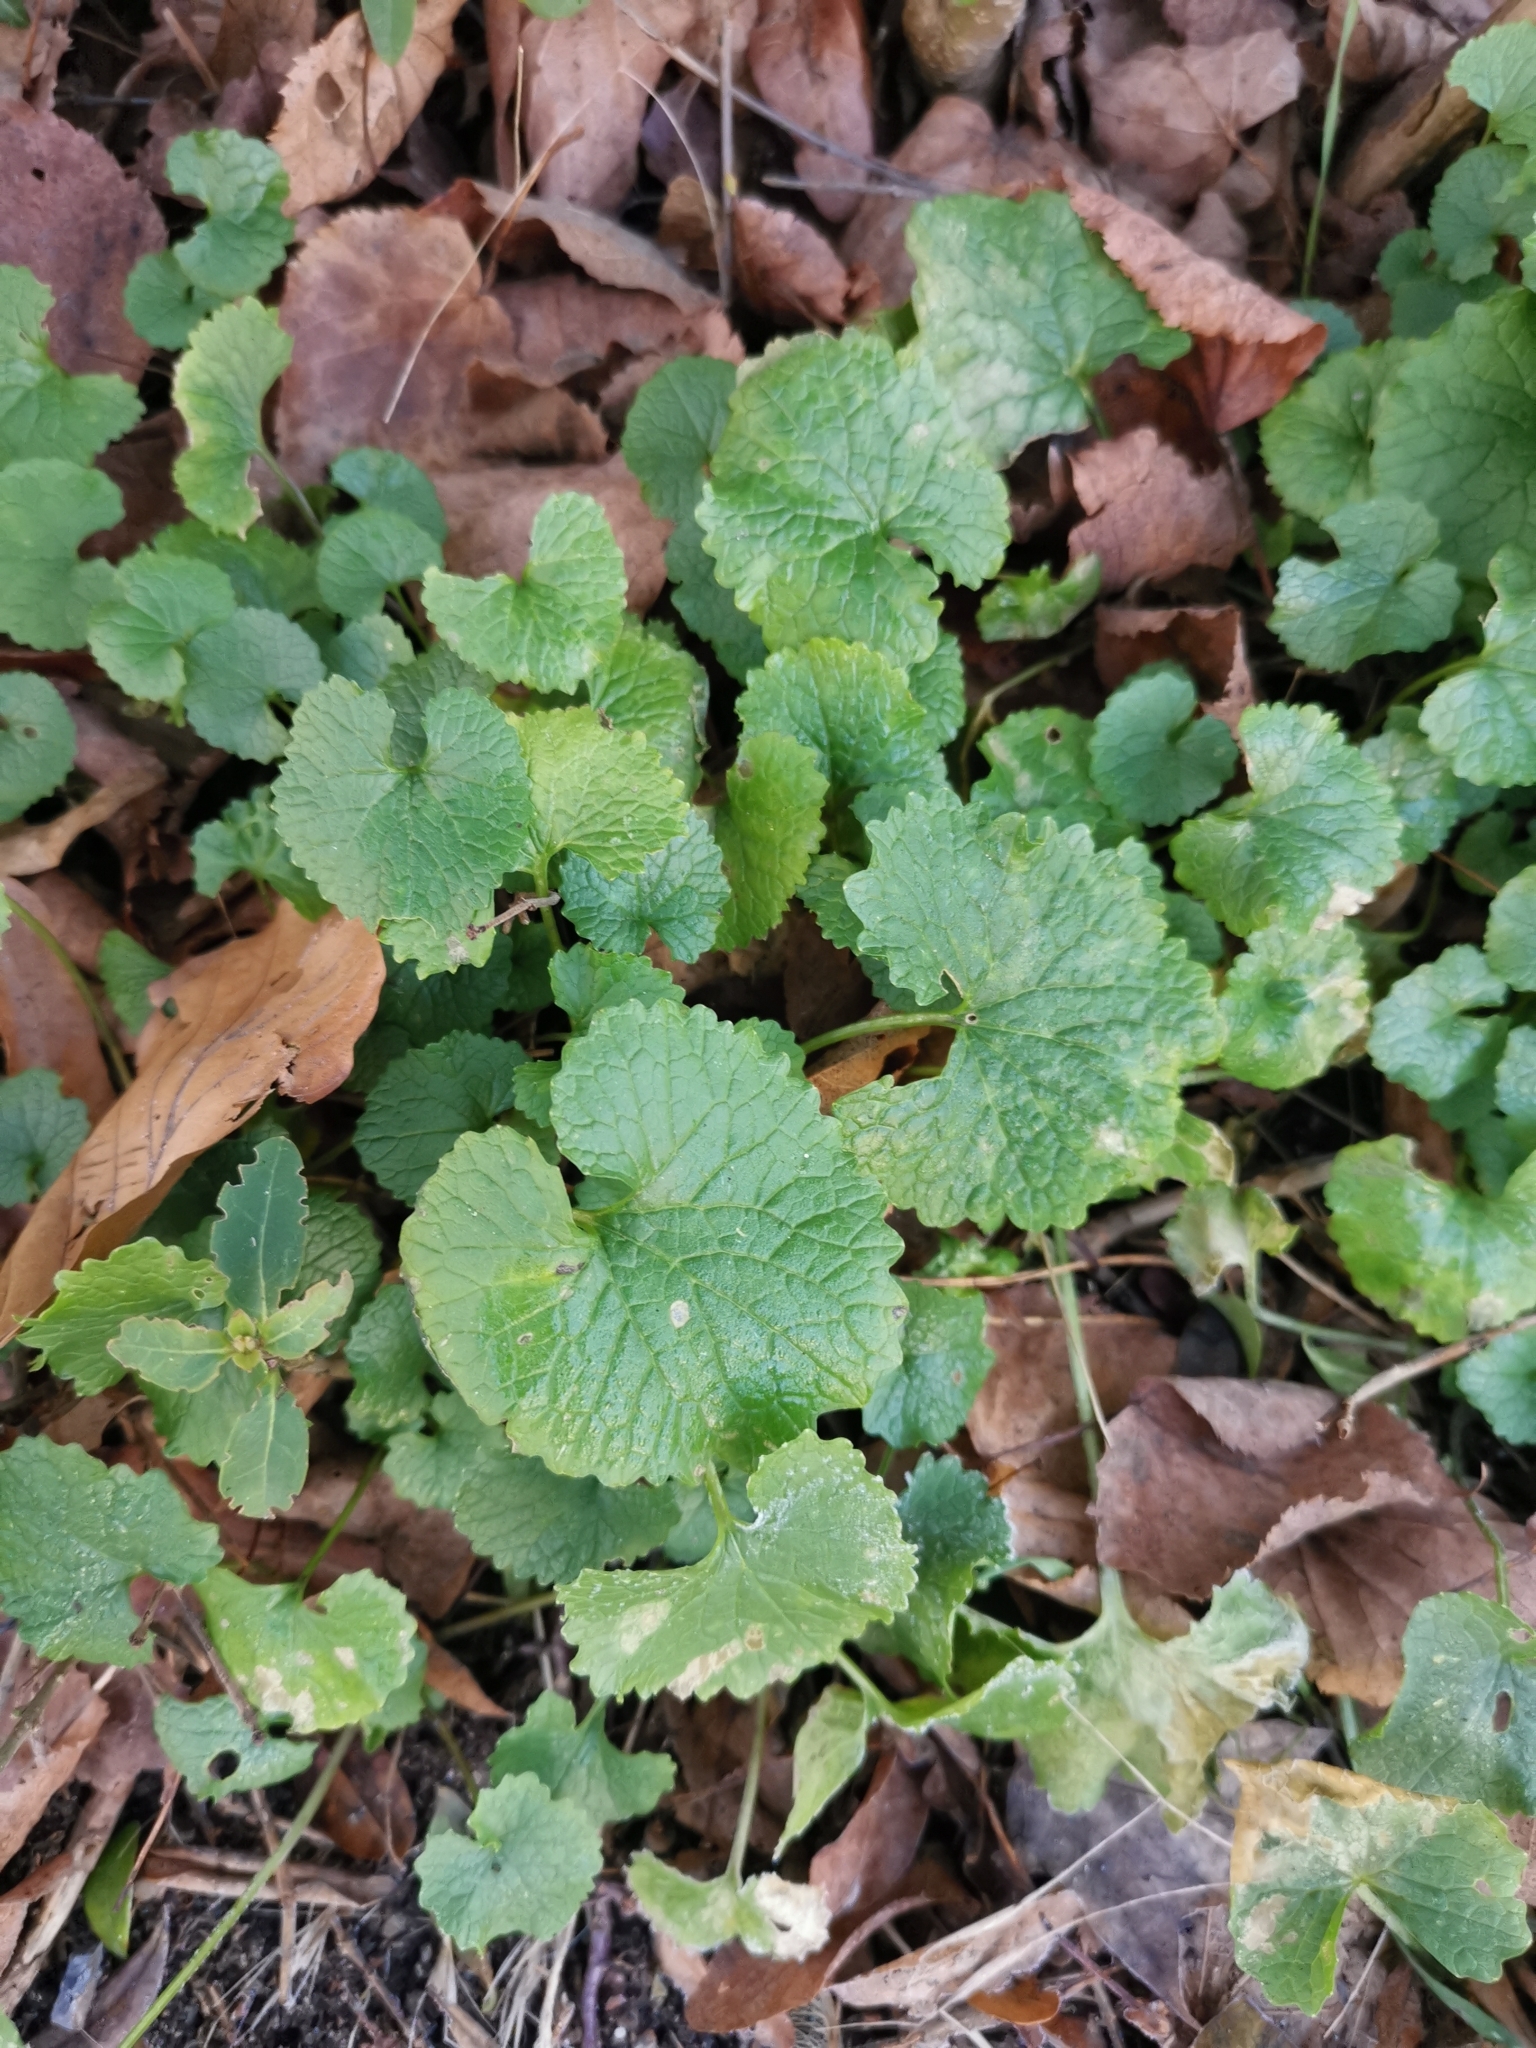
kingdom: Plantae
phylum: Tracheophyta
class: Magnoliopsida
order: Brassicales
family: Brassicaceae
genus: Alliaria
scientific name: Alliaria petiolata
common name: Garlic mustard
